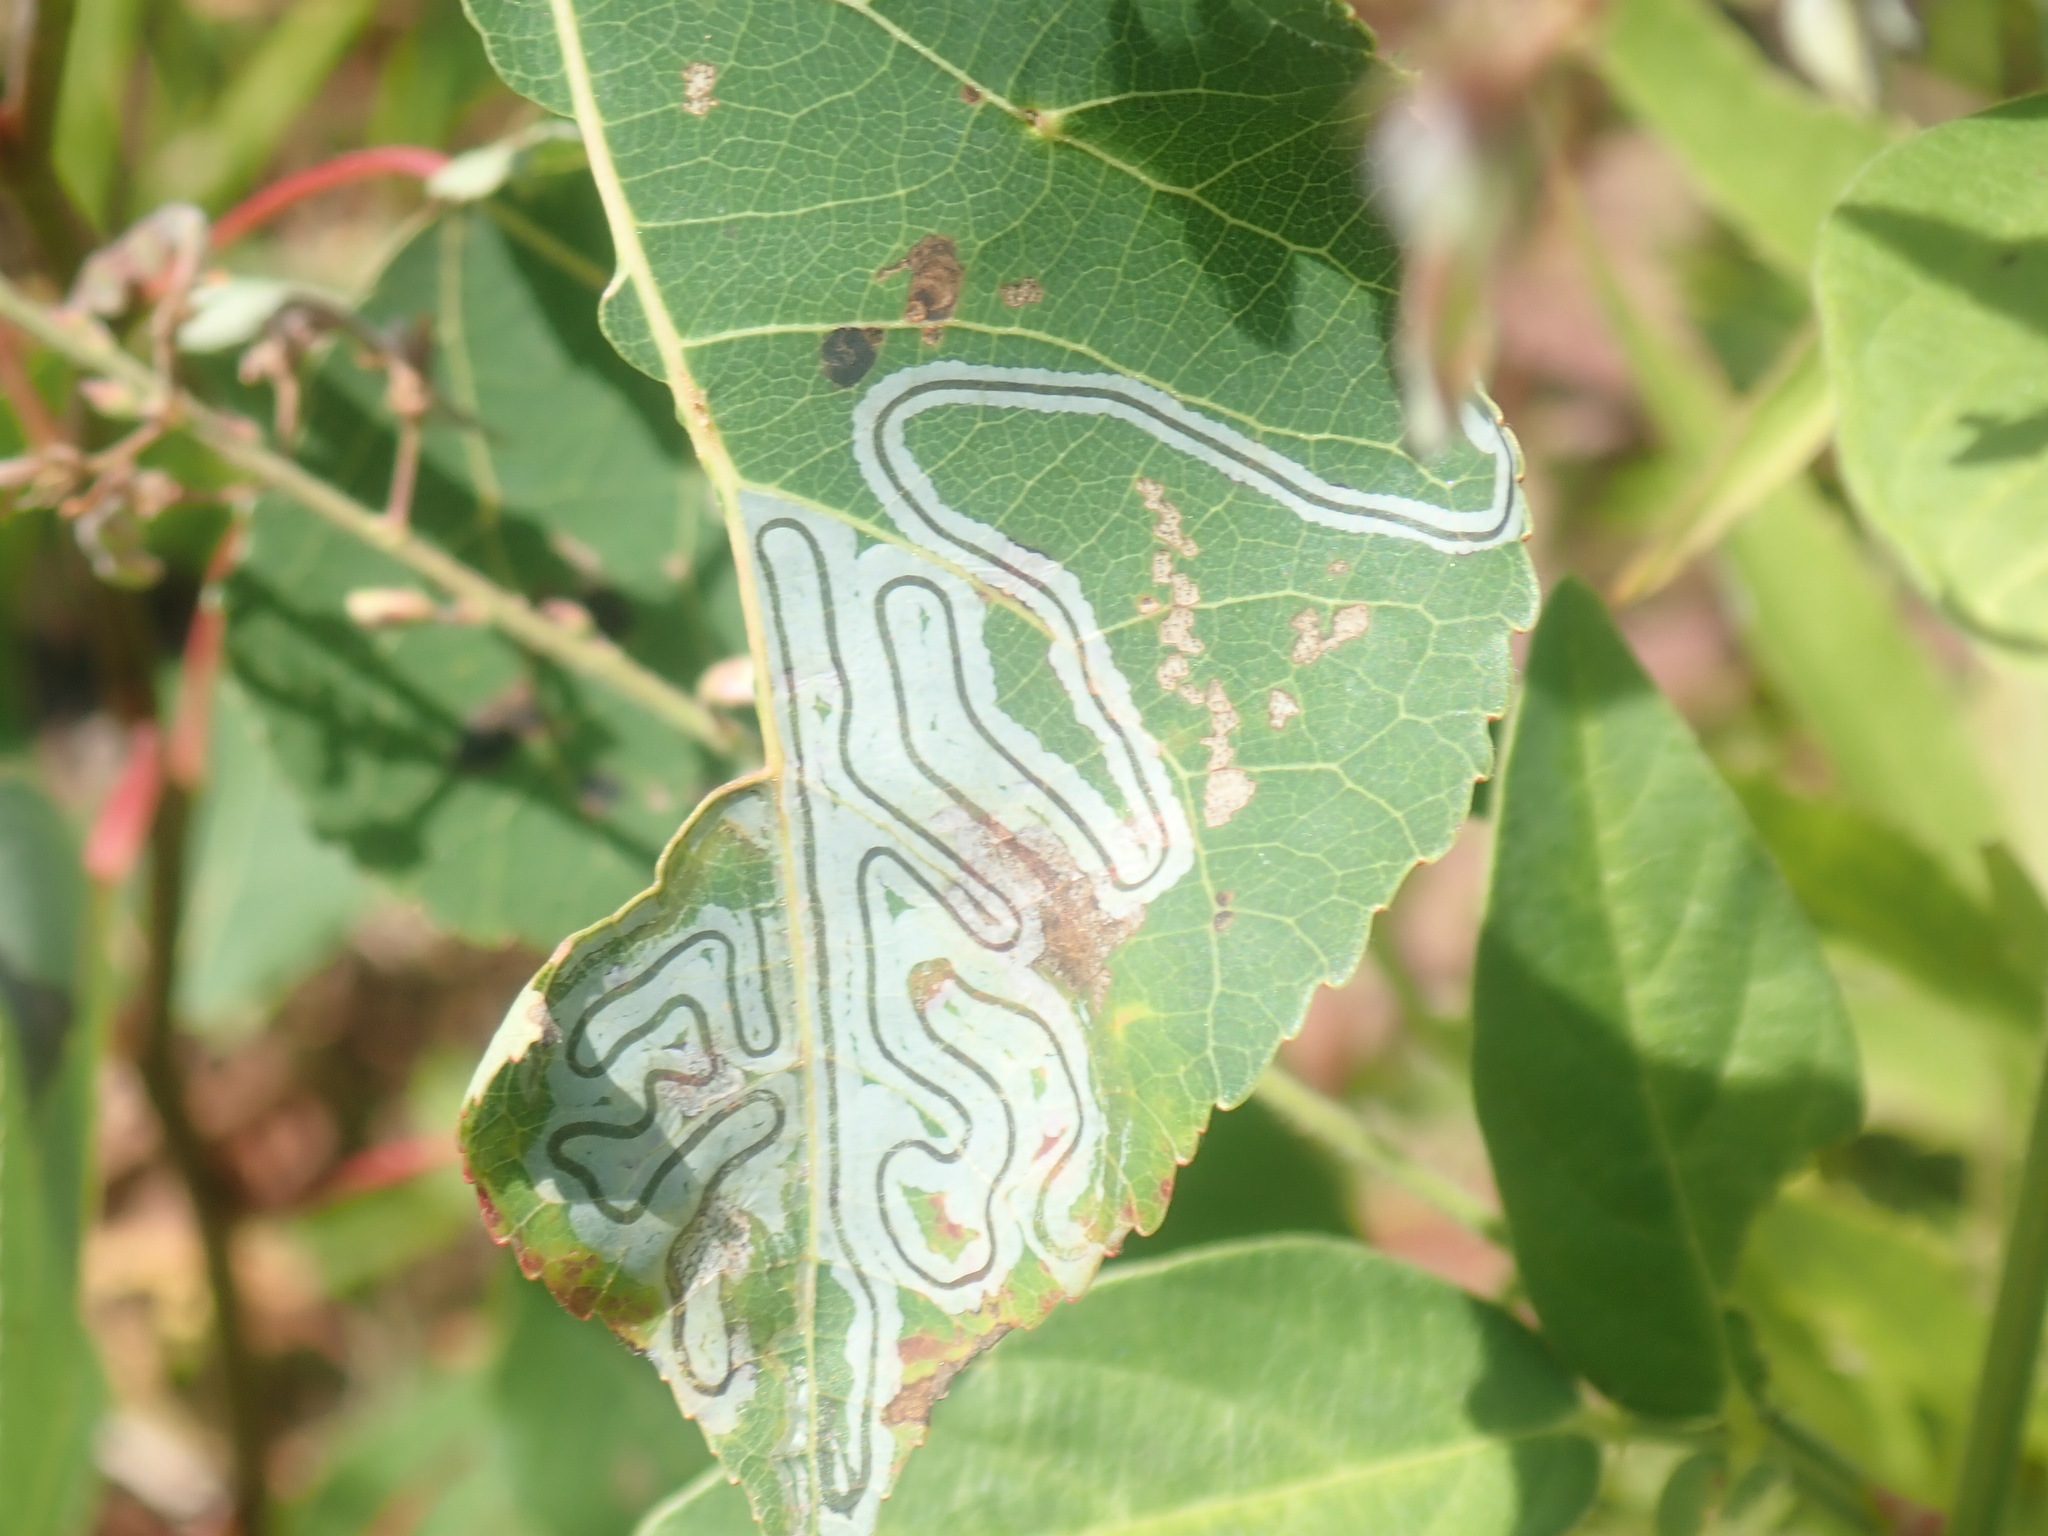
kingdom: Animalia
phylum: Arthropoda
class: Insecta
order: Lepidoptera
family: Gracillariidae
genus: Phyllocnistis
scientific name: Phyllocnistis populiella
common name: Aspen serpentine leafminer moth
